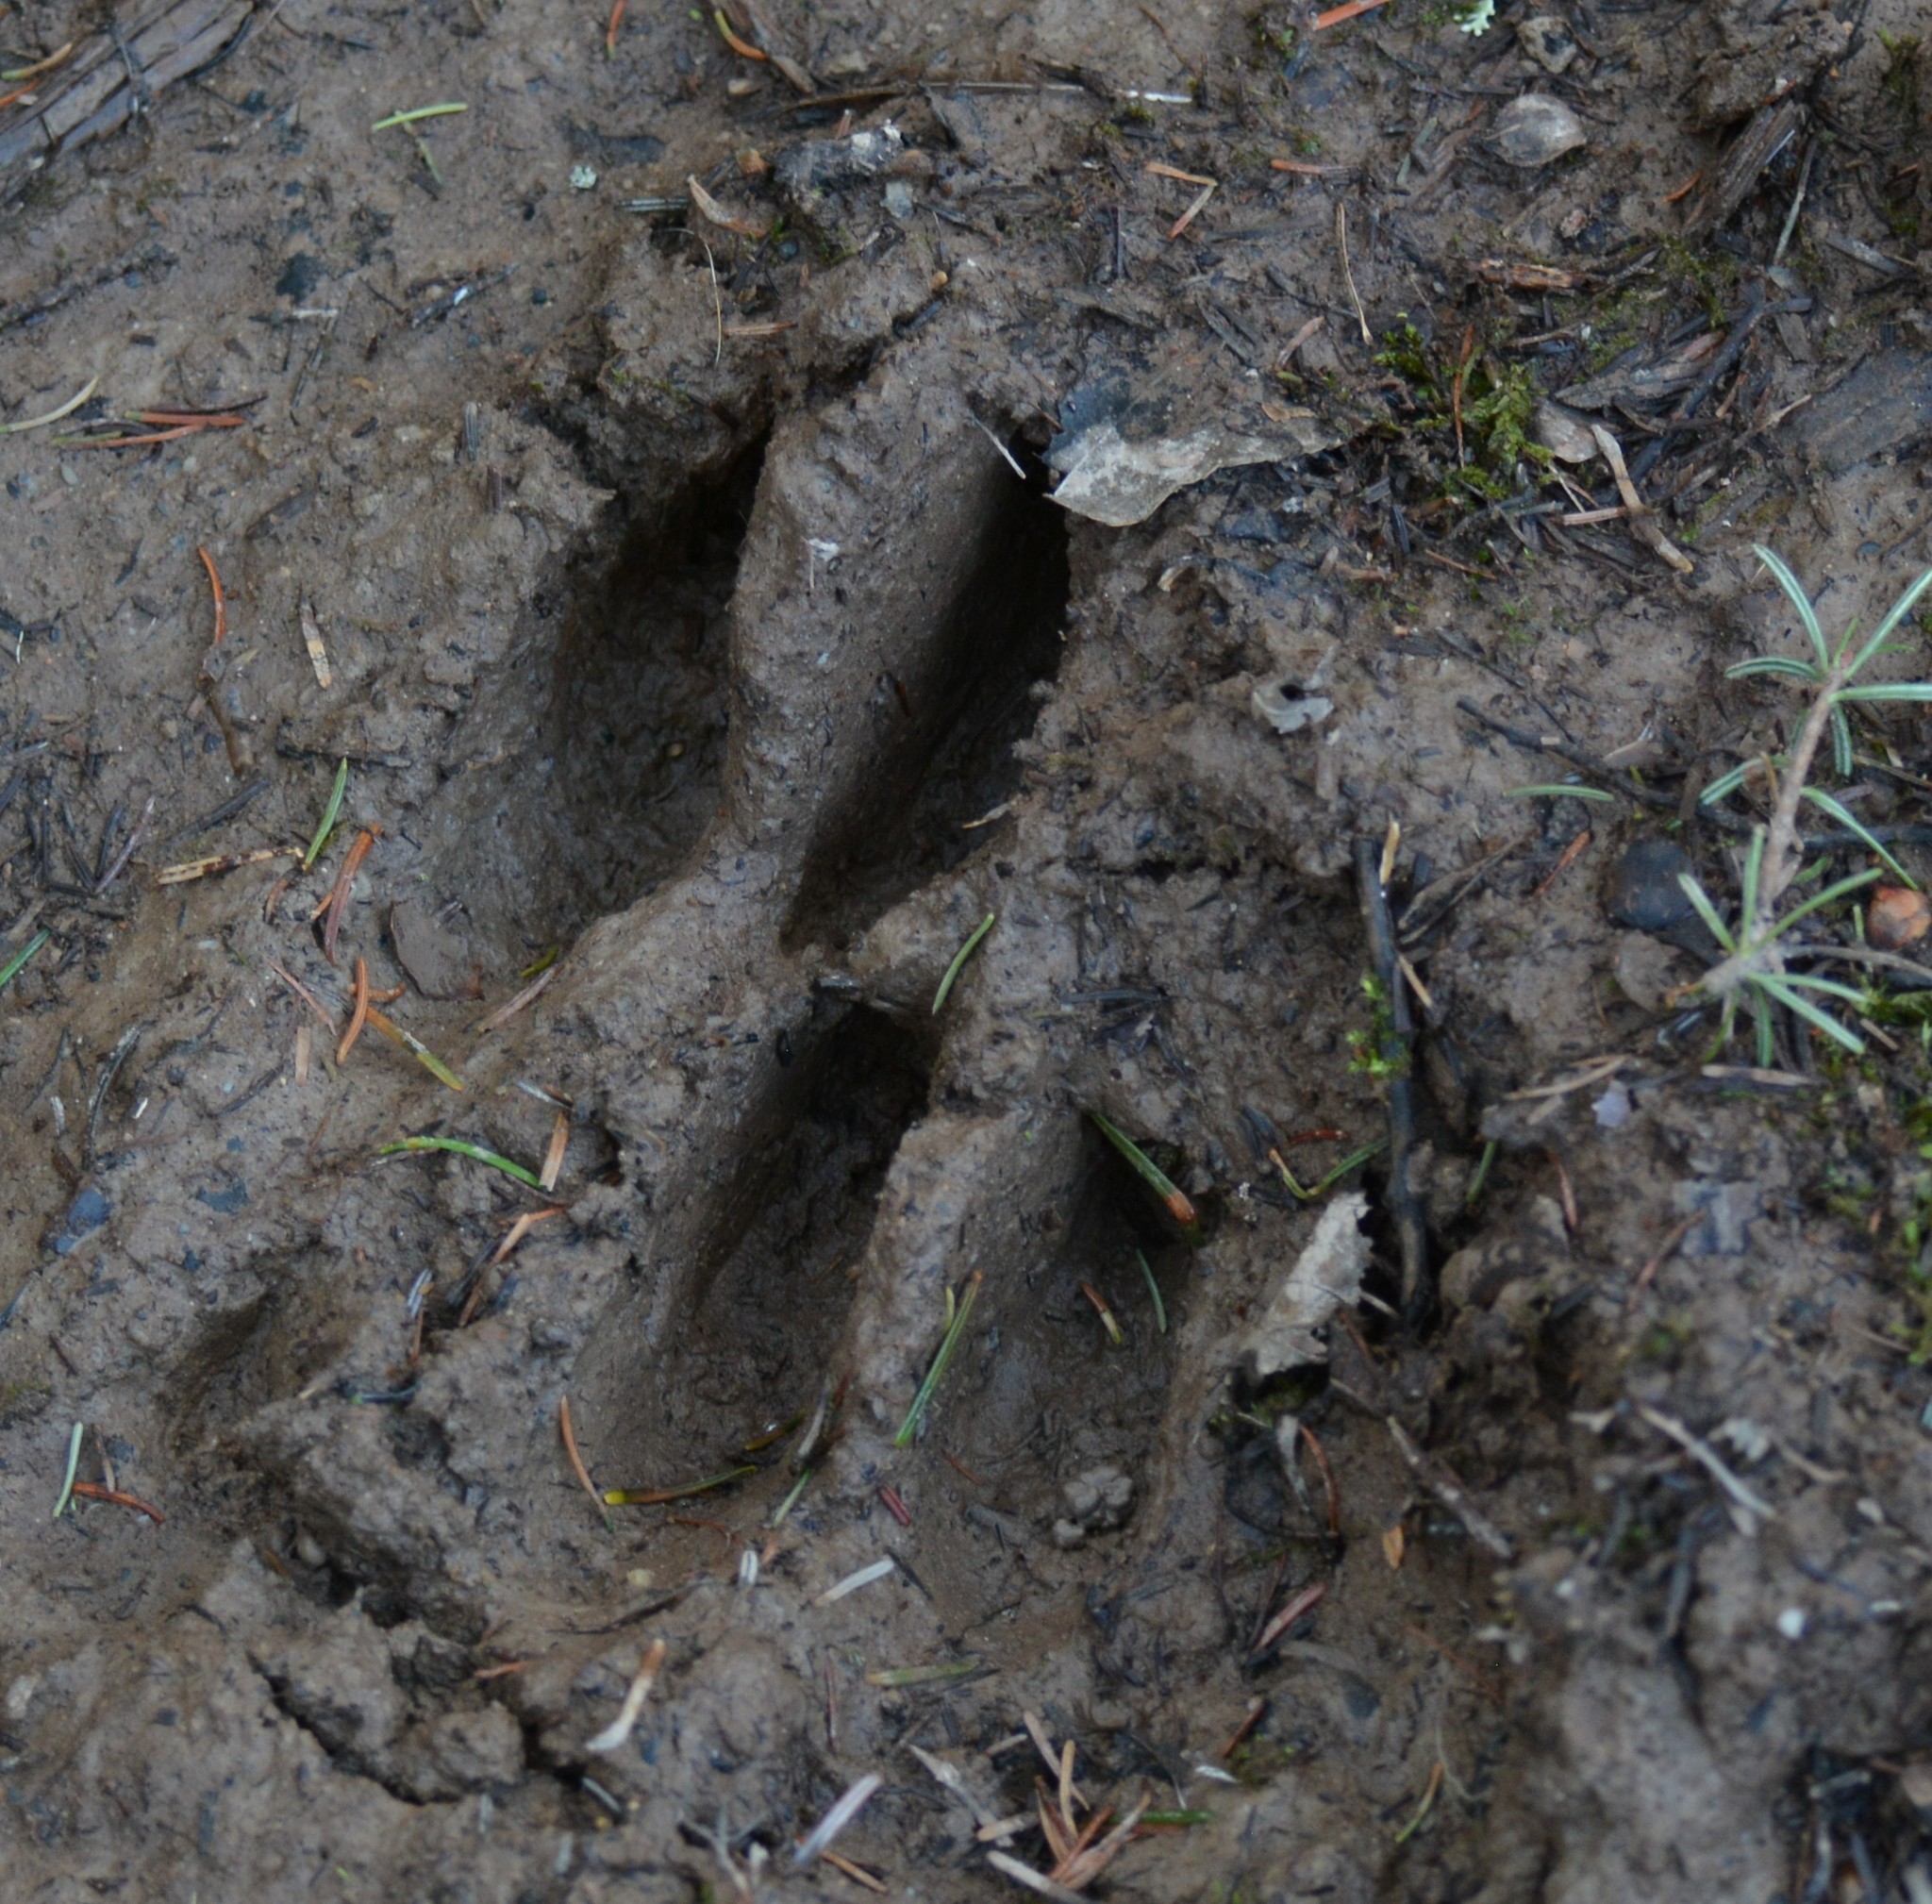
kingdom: Animalia
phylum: Chordata
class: Mammalia
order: Artiodactyla
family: Cervidae
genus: Odocoileus
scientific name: Odocoileus virginianus
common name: White-tailed deer
